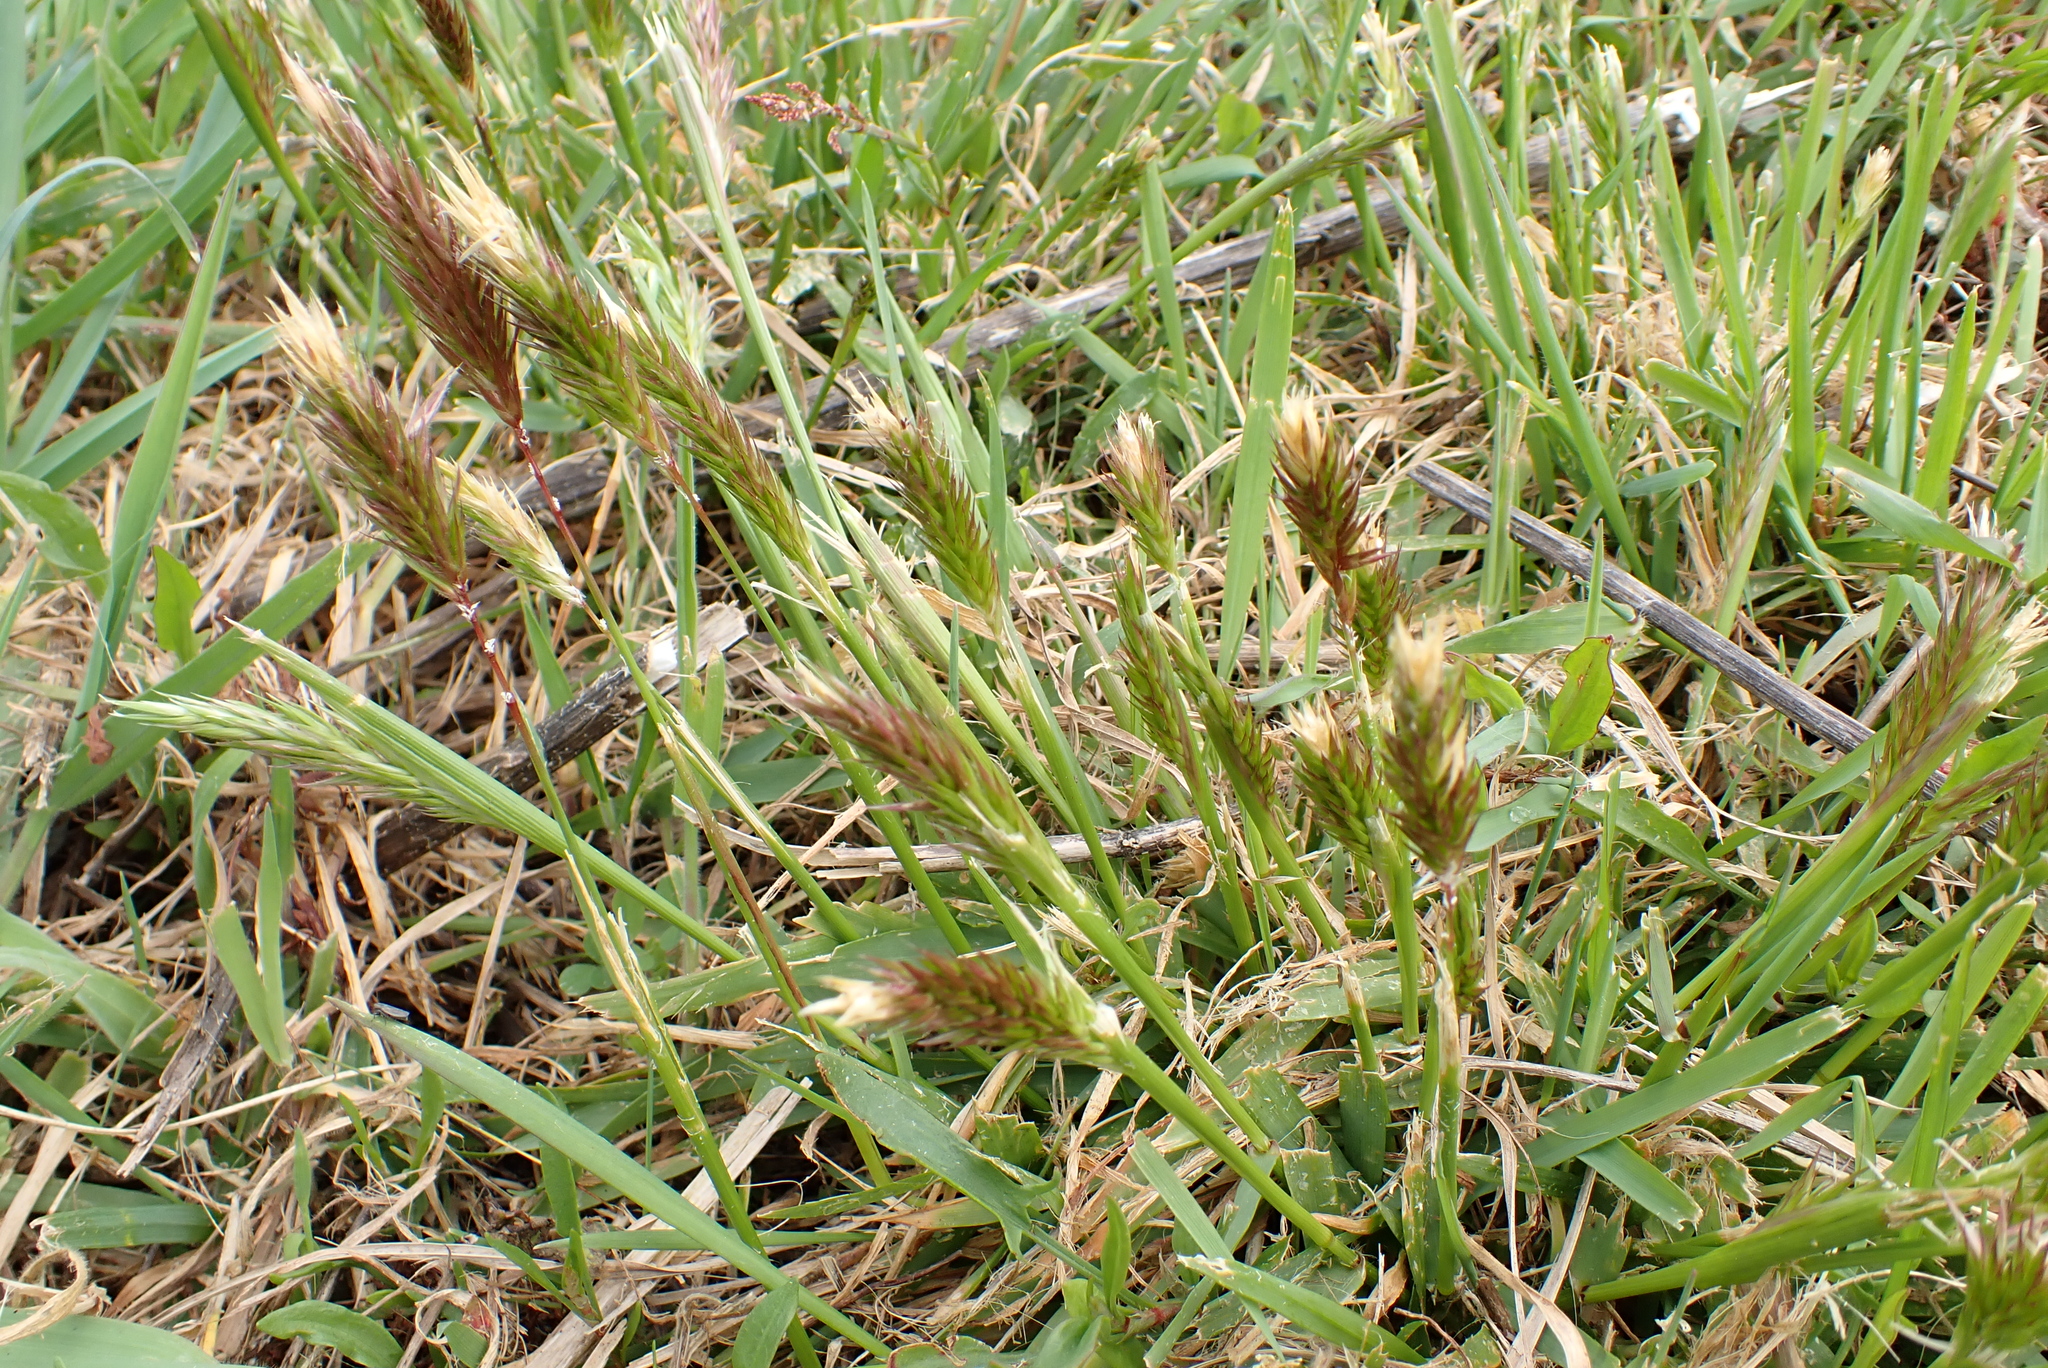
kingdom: Plantae
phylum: Tracheophyta
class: Liliopsida
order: Poales
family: Poaceae
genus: Anthoxanthum
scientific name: Anthoxanthum odoratum
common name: Sweet vernalgrass
